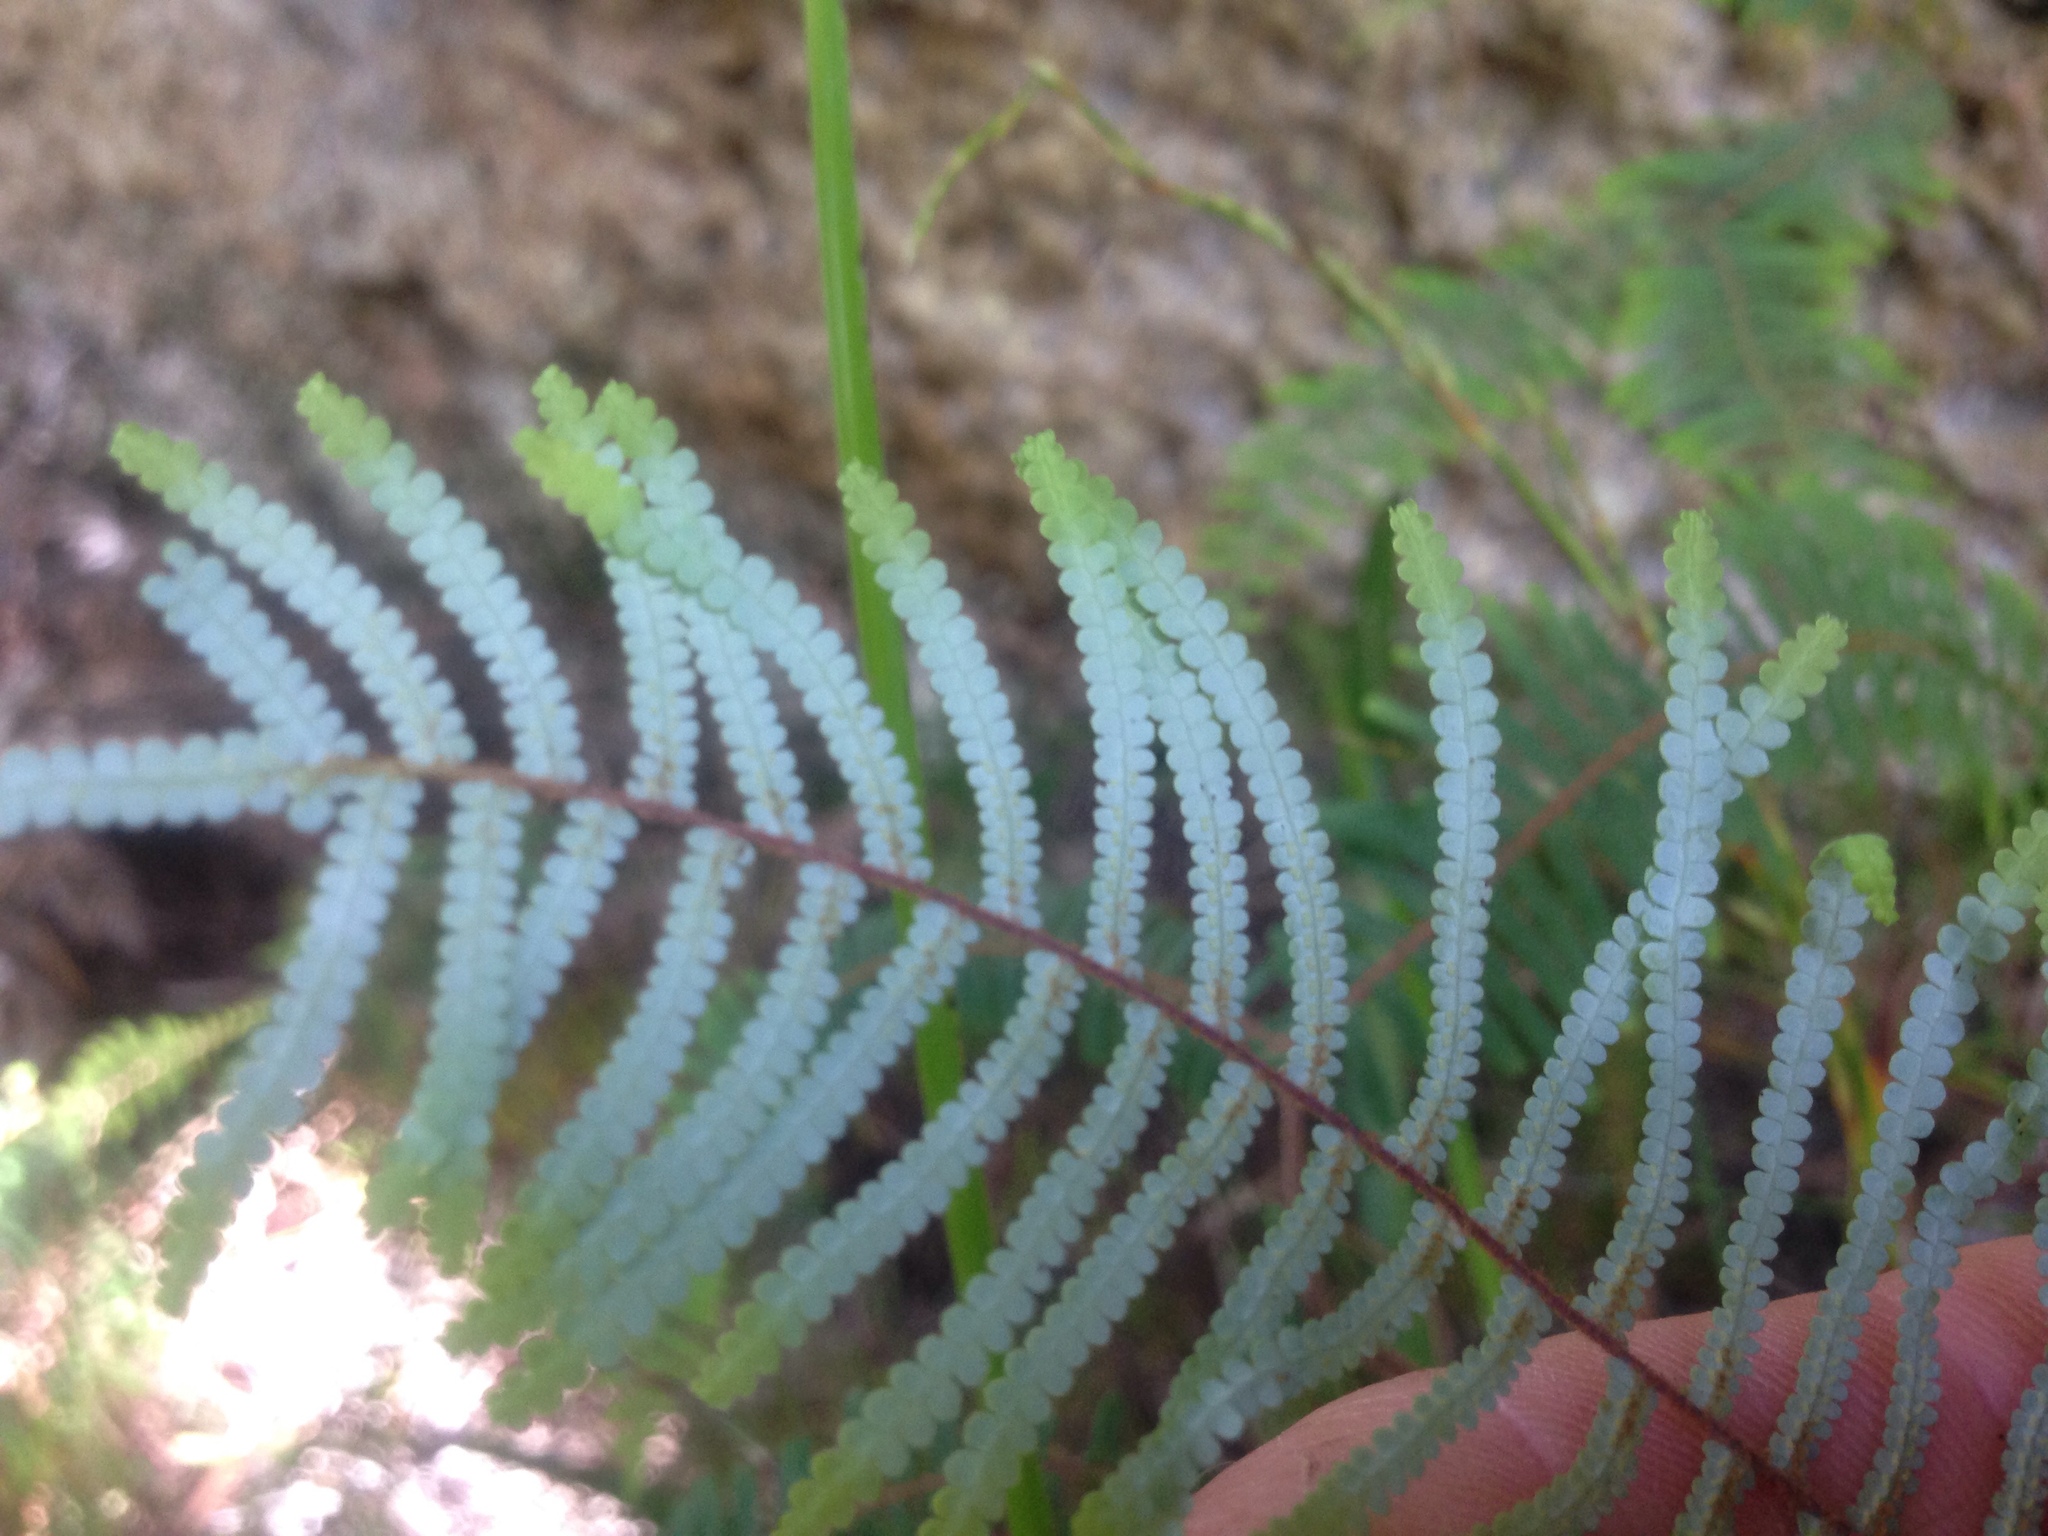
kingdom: Plantae
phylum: Tracheophyta
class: Polypodiopsida
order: Gleicheniales
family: Gleicheniaceae
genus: Gleichenia
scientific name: Gleichenia dicarpa
